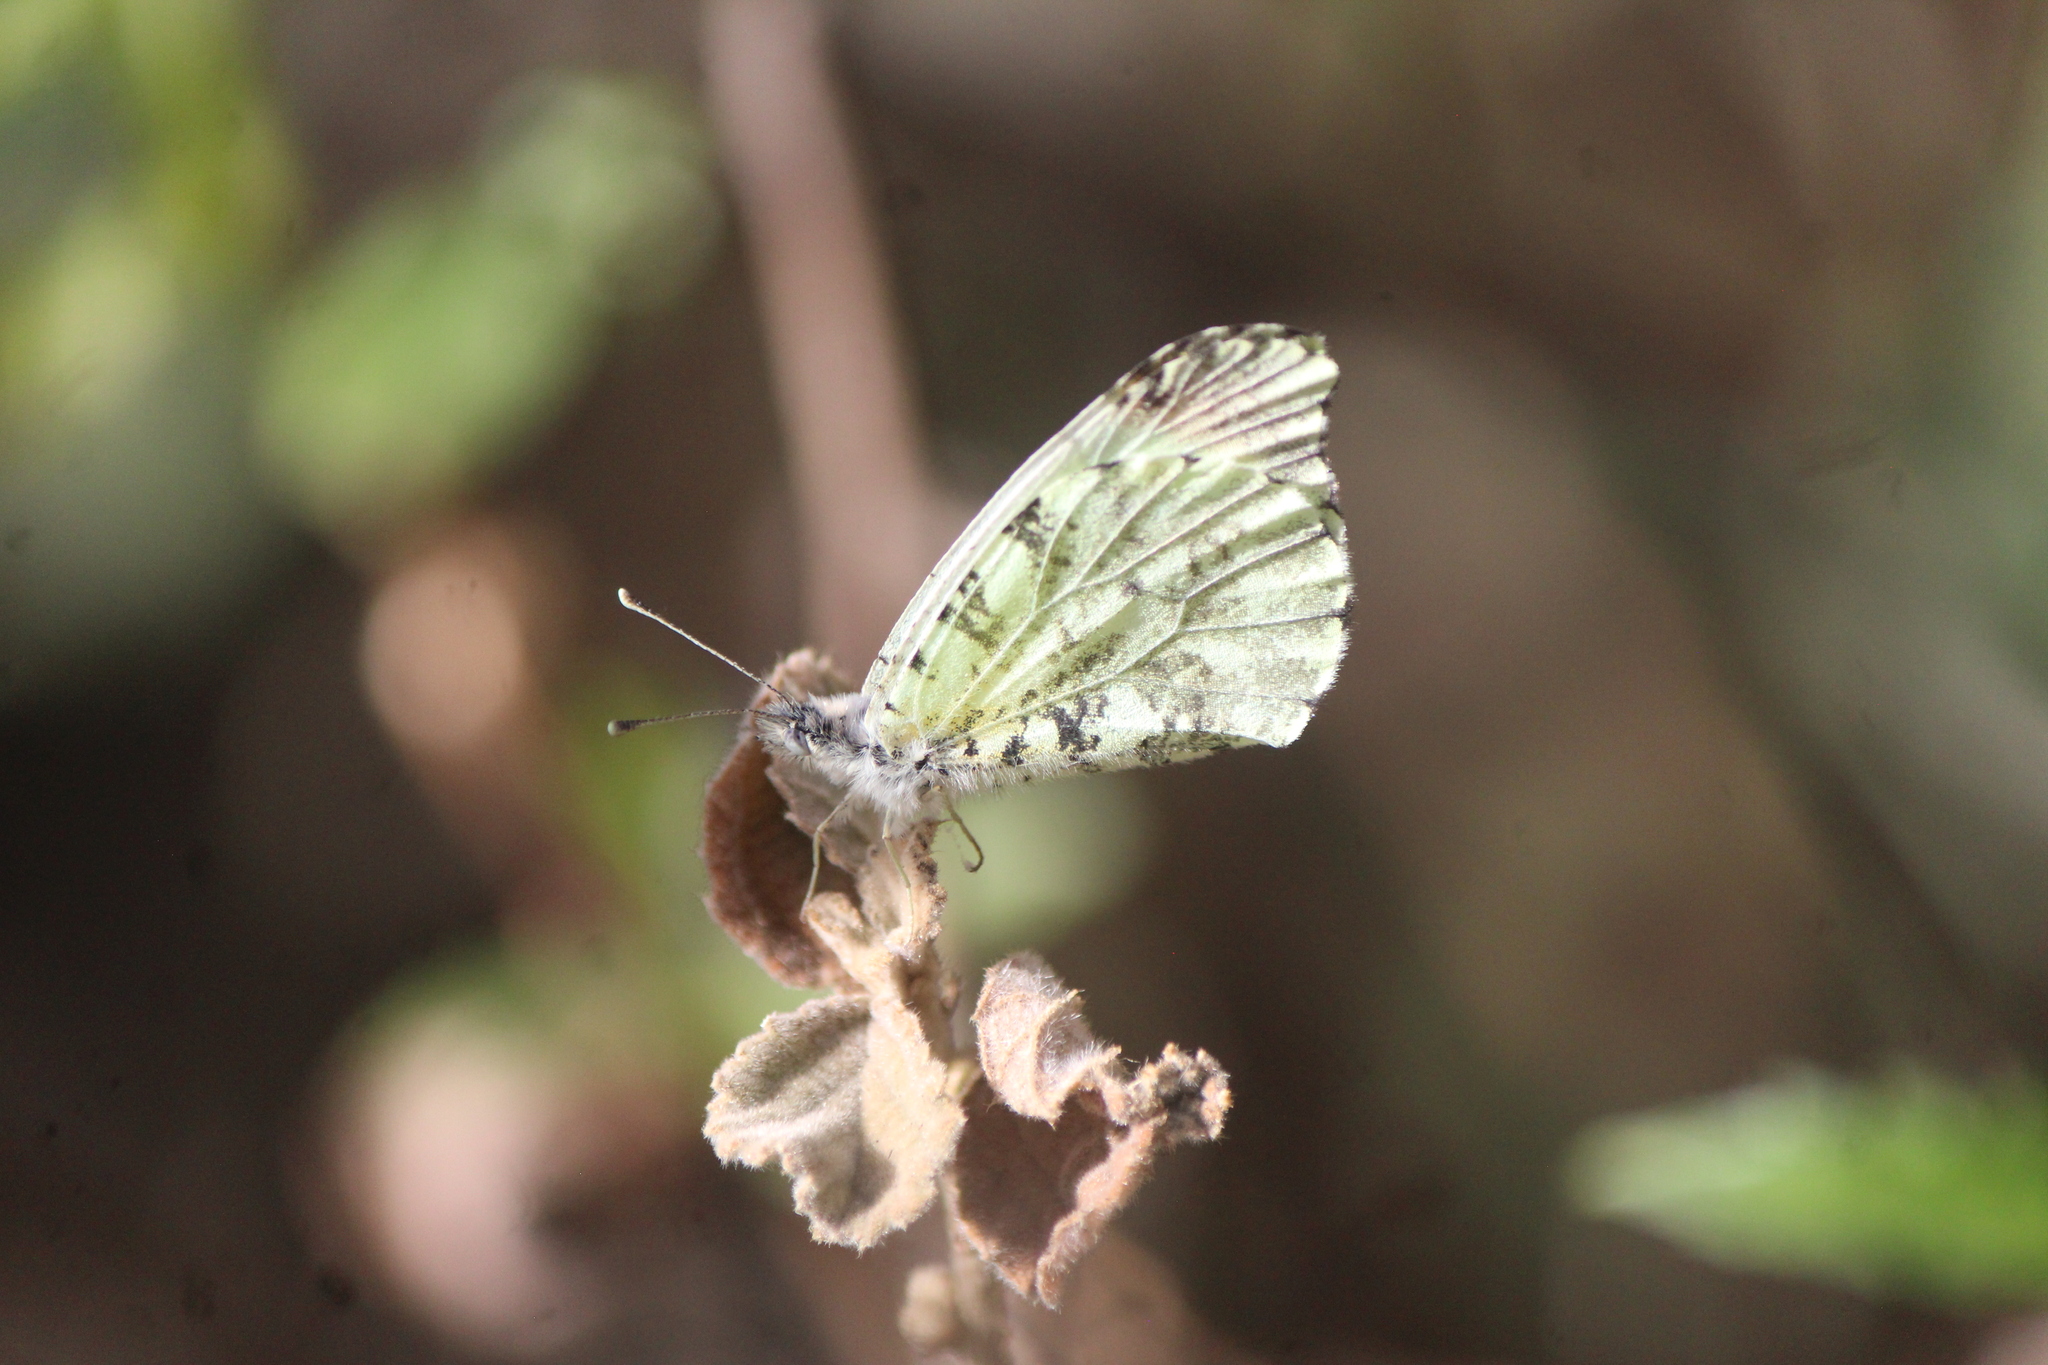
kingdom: Animalia
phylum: Arthropoda
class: Insecta
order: Lepidoptera
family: Pieridae
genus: Anthocharis
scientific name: Anthocharis limonea
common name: Mexican orangetip
